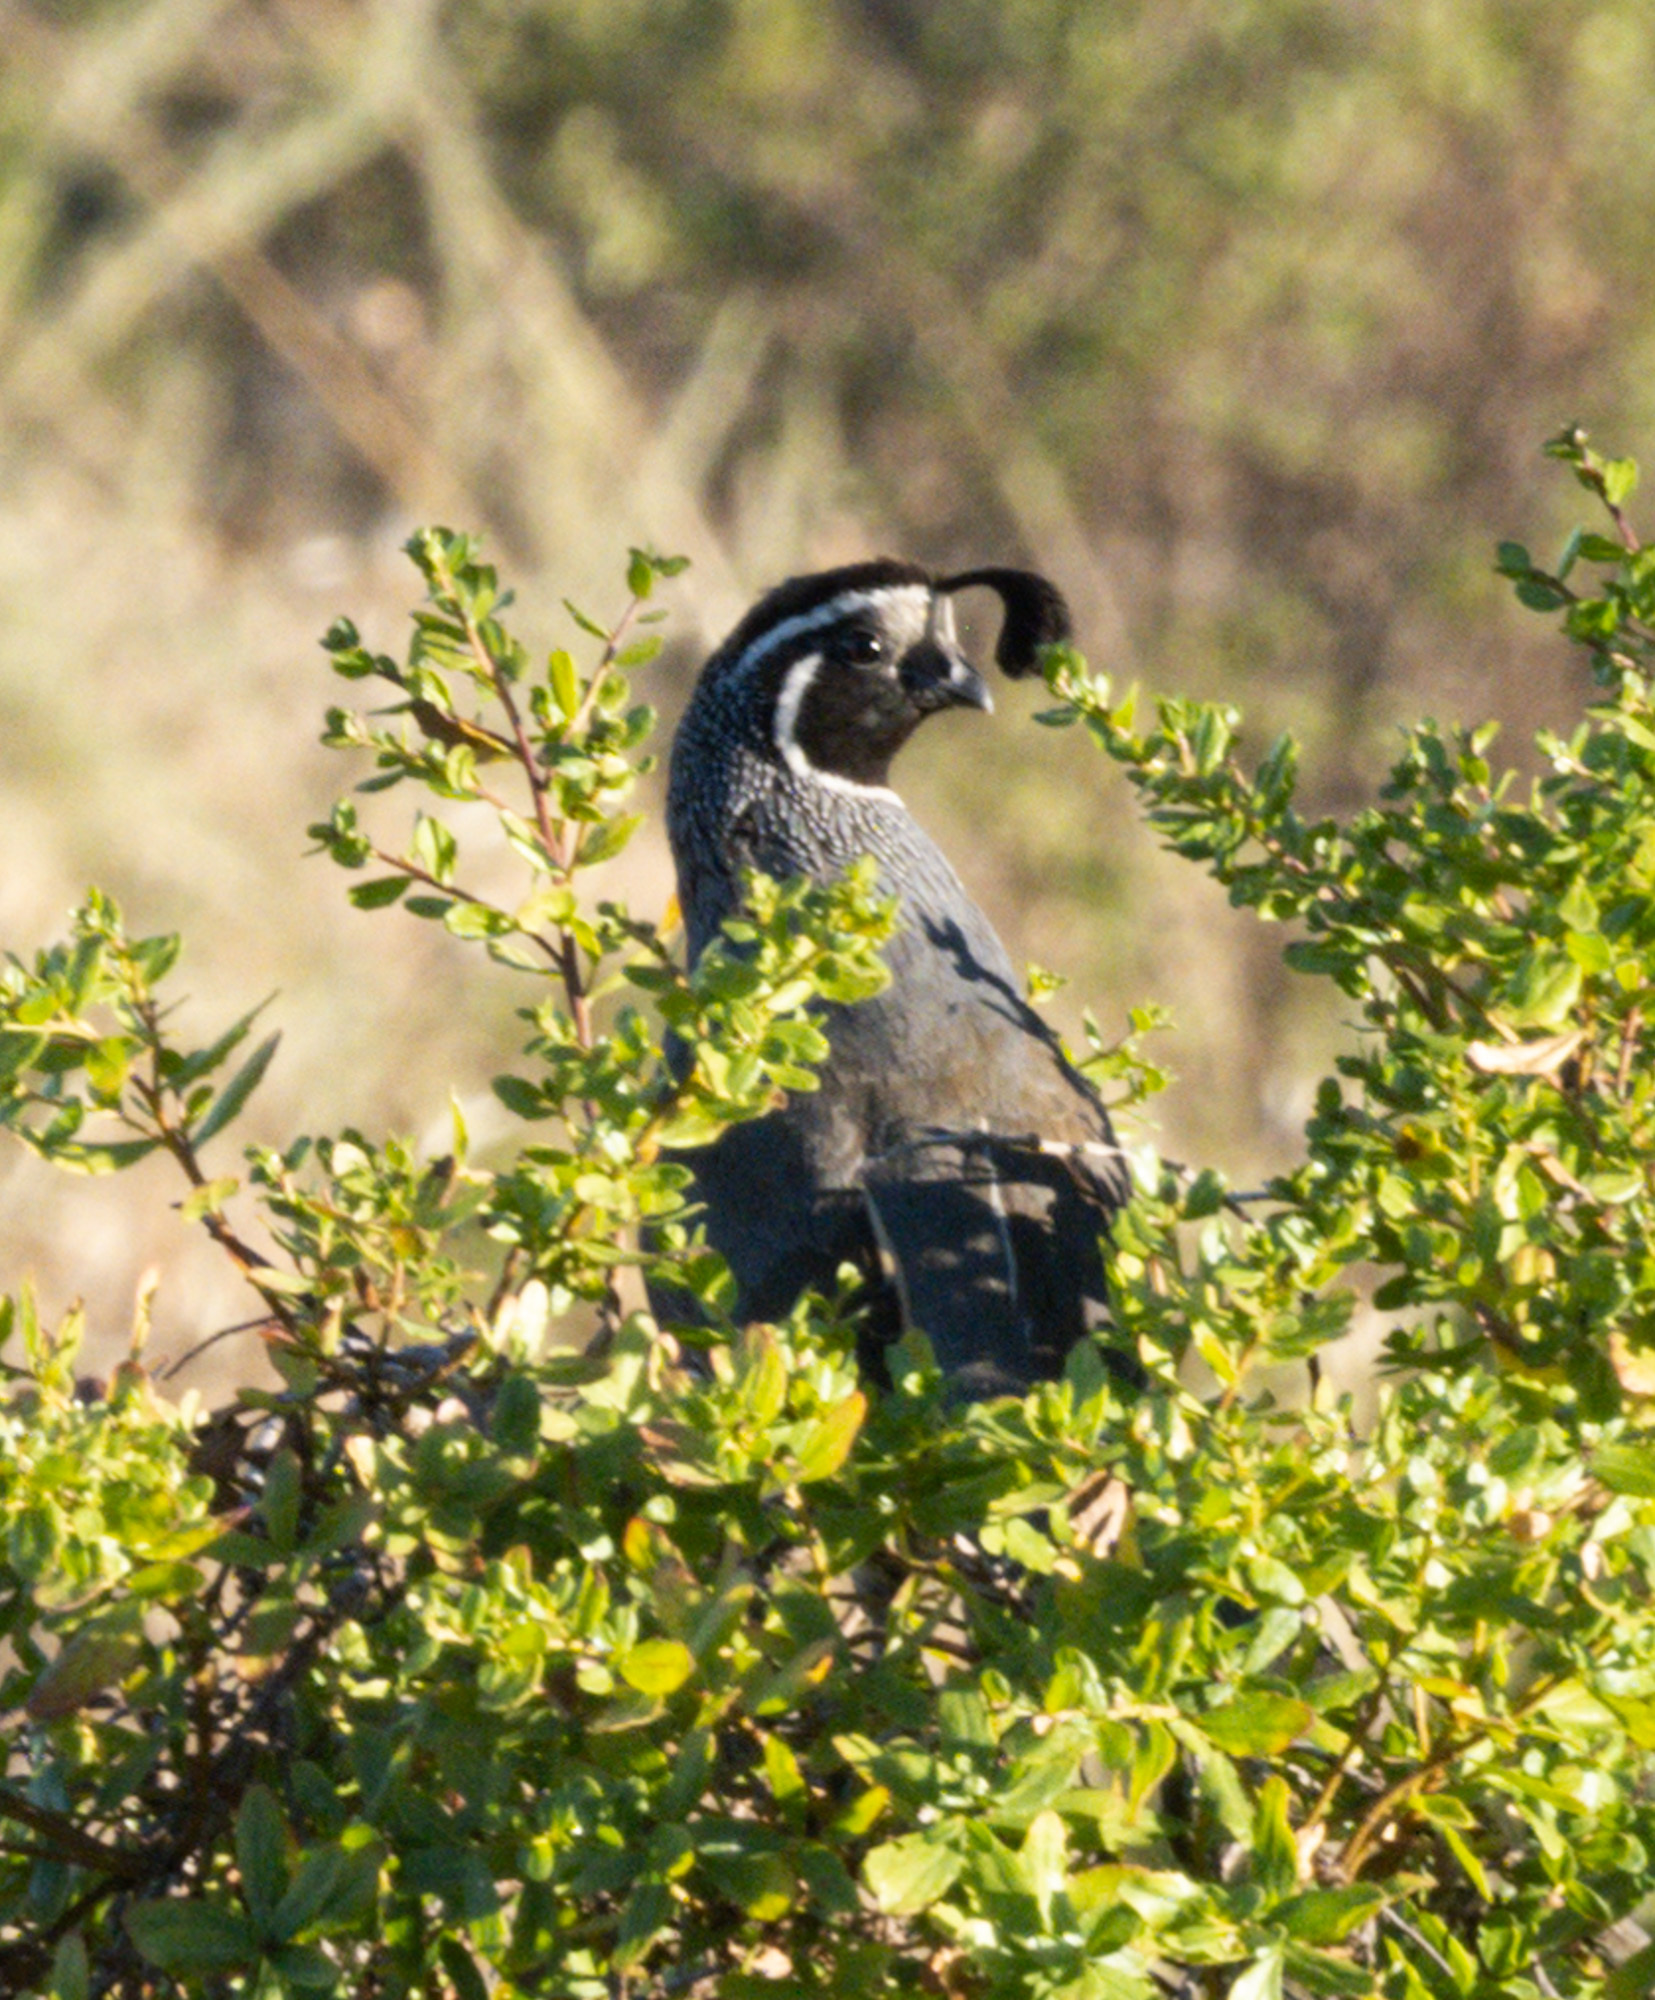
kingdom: Animalia
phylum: Chordata
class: Aves
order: Galliformes
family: Odontophoridae
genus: Callipepla
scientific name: Callipepla californica
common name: California quail
